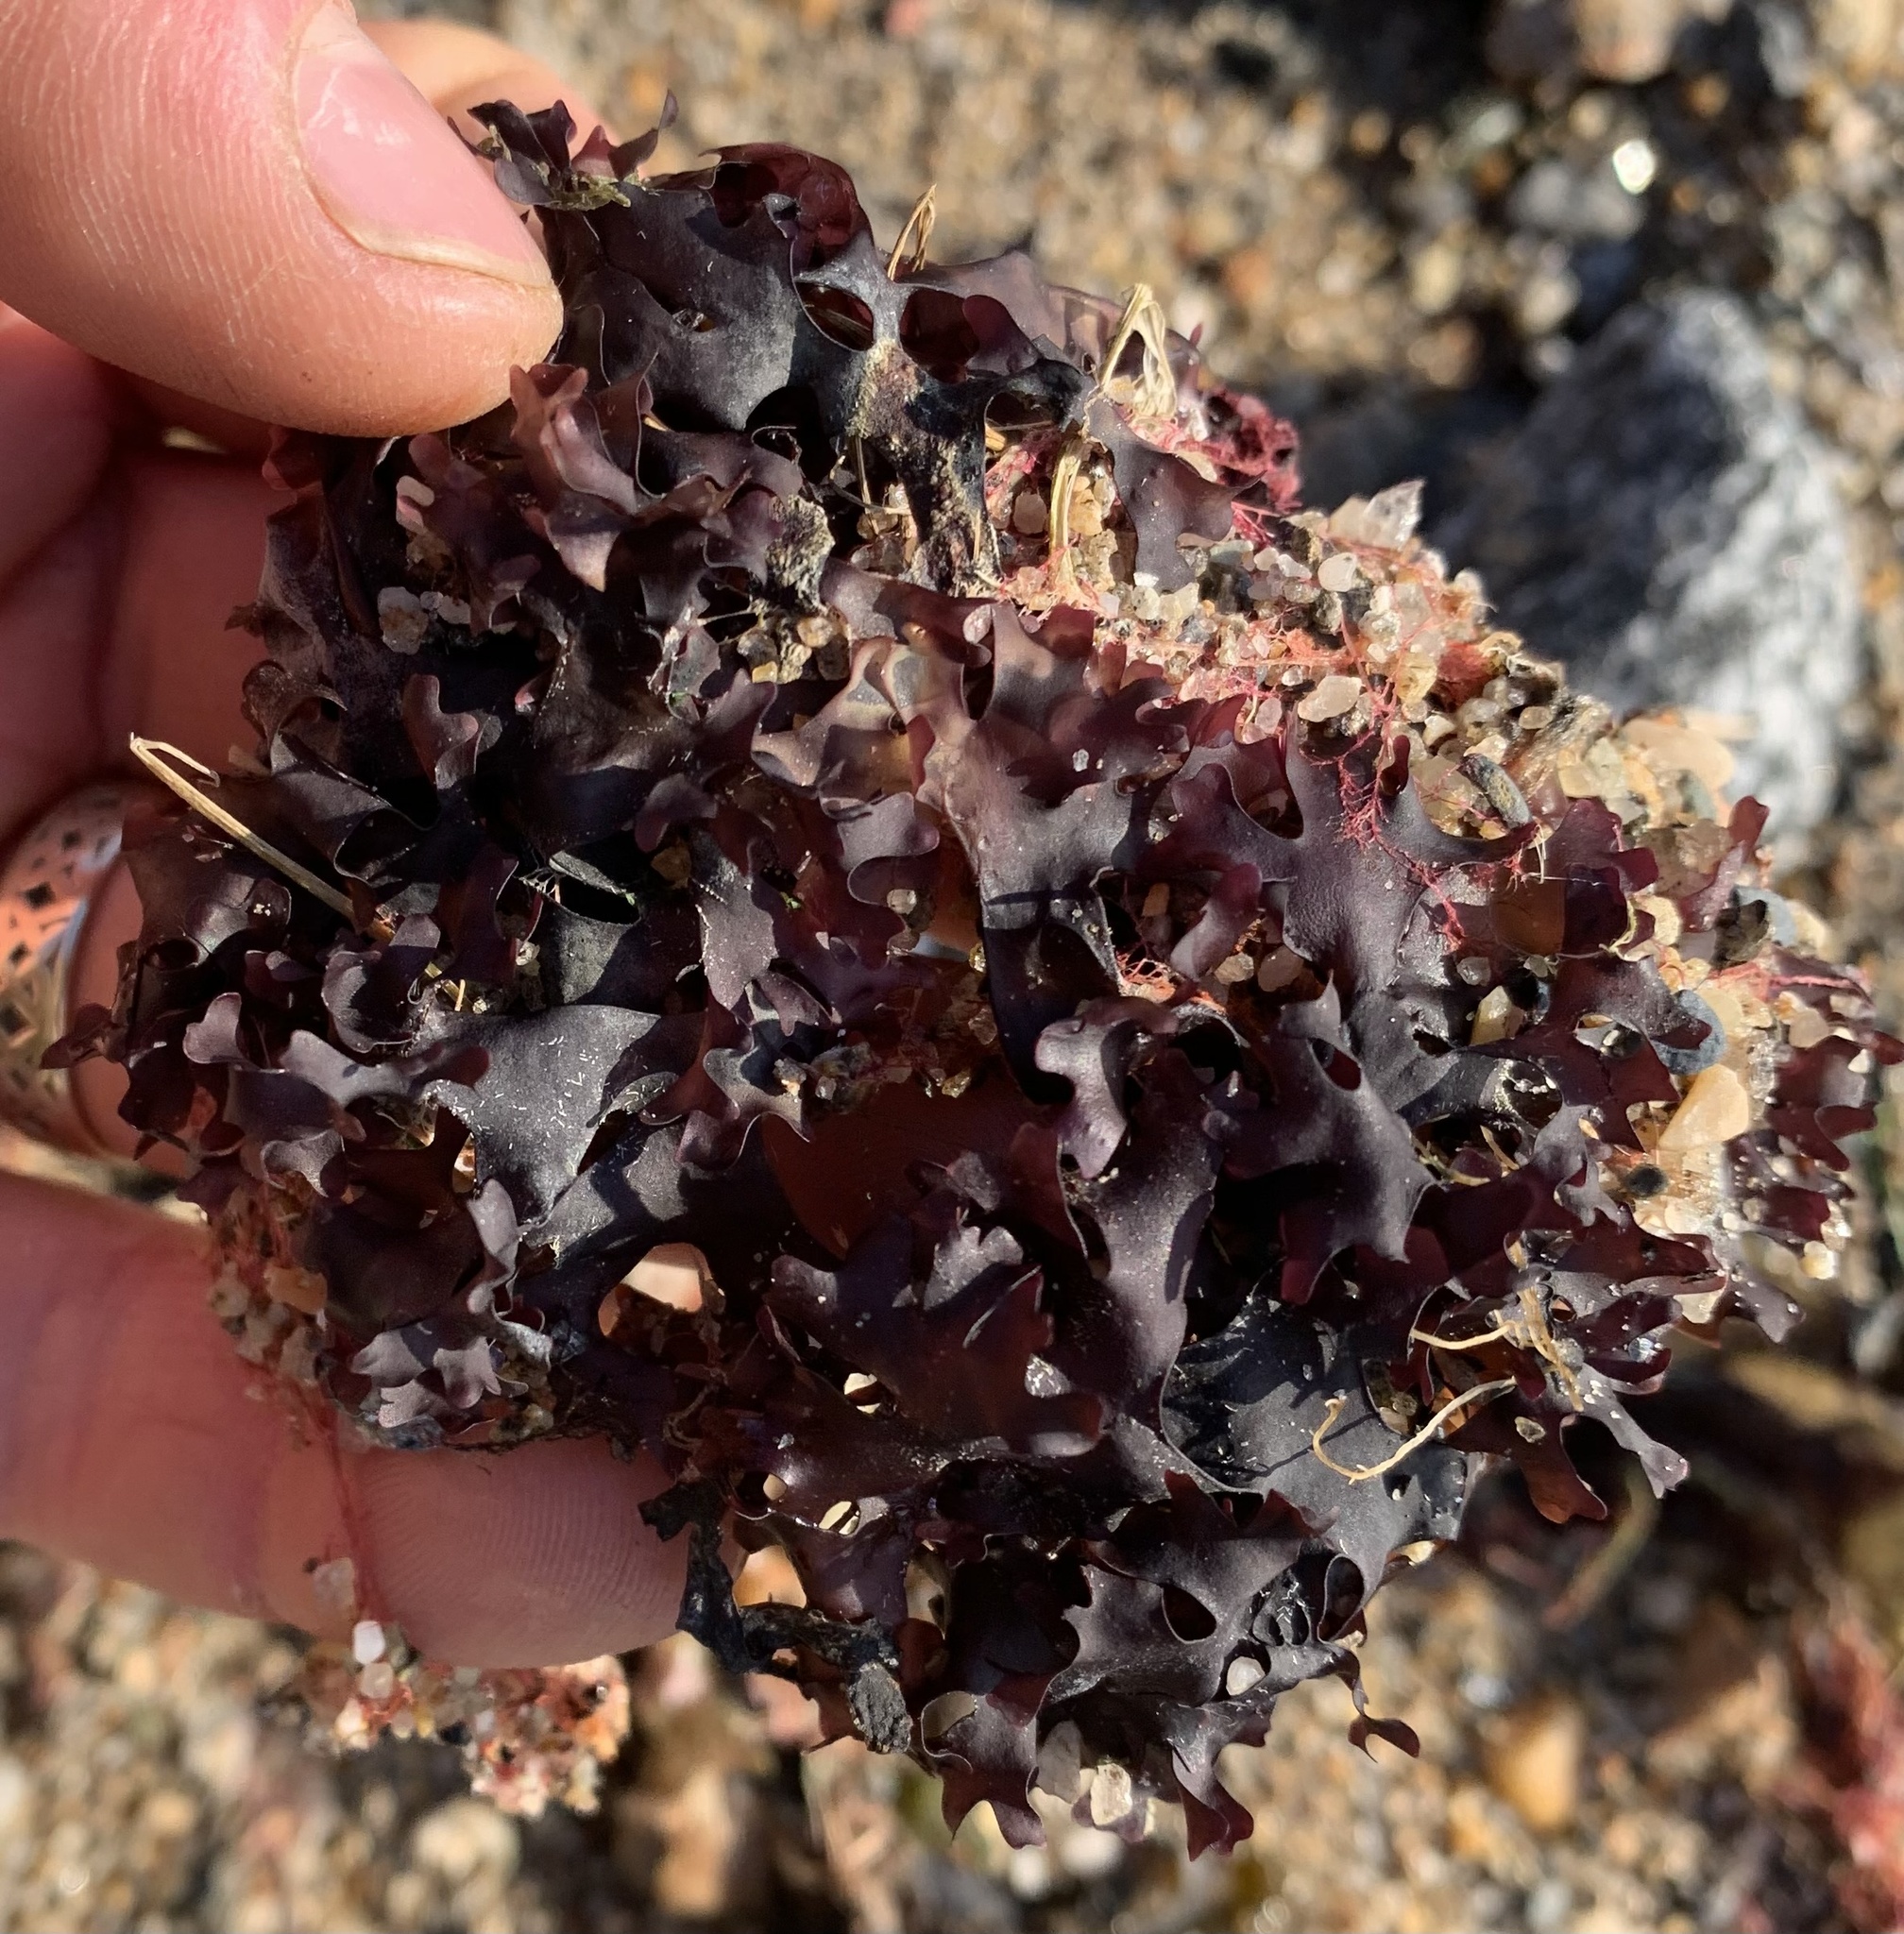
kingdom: Plantae
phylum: Rhodophyta
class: Florideophyceae
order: Gigartinales
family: Gigartinaceae
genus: Chondrus
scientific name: Chondrus crispus
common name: Carrageen
